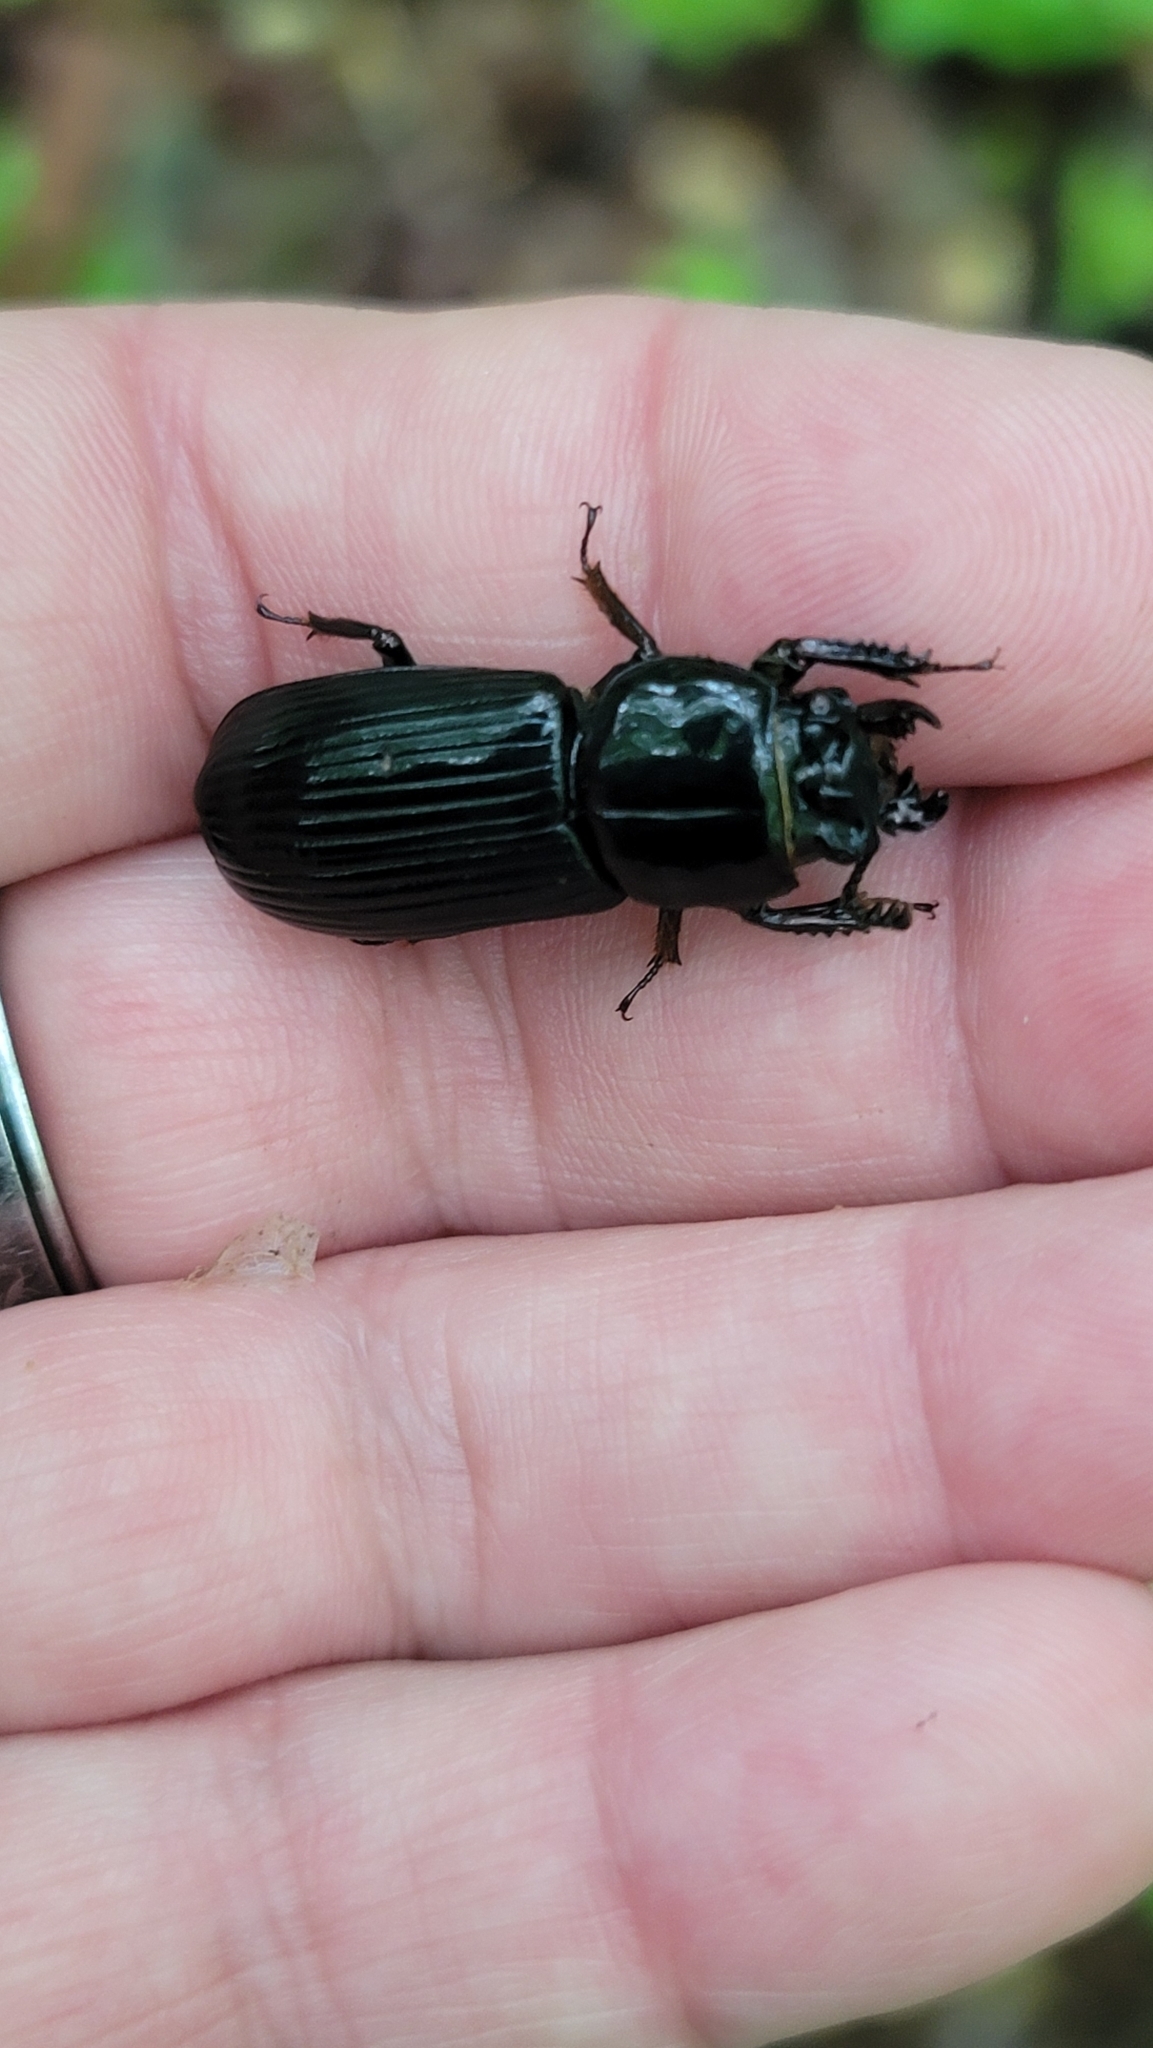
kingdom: Animalia
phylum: Arthropoda
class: Insecta
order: Coleoptera
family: Passalidae
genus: Odontotaenius
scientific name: Odontotaenius disjunctus
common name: Patent leather beetle
